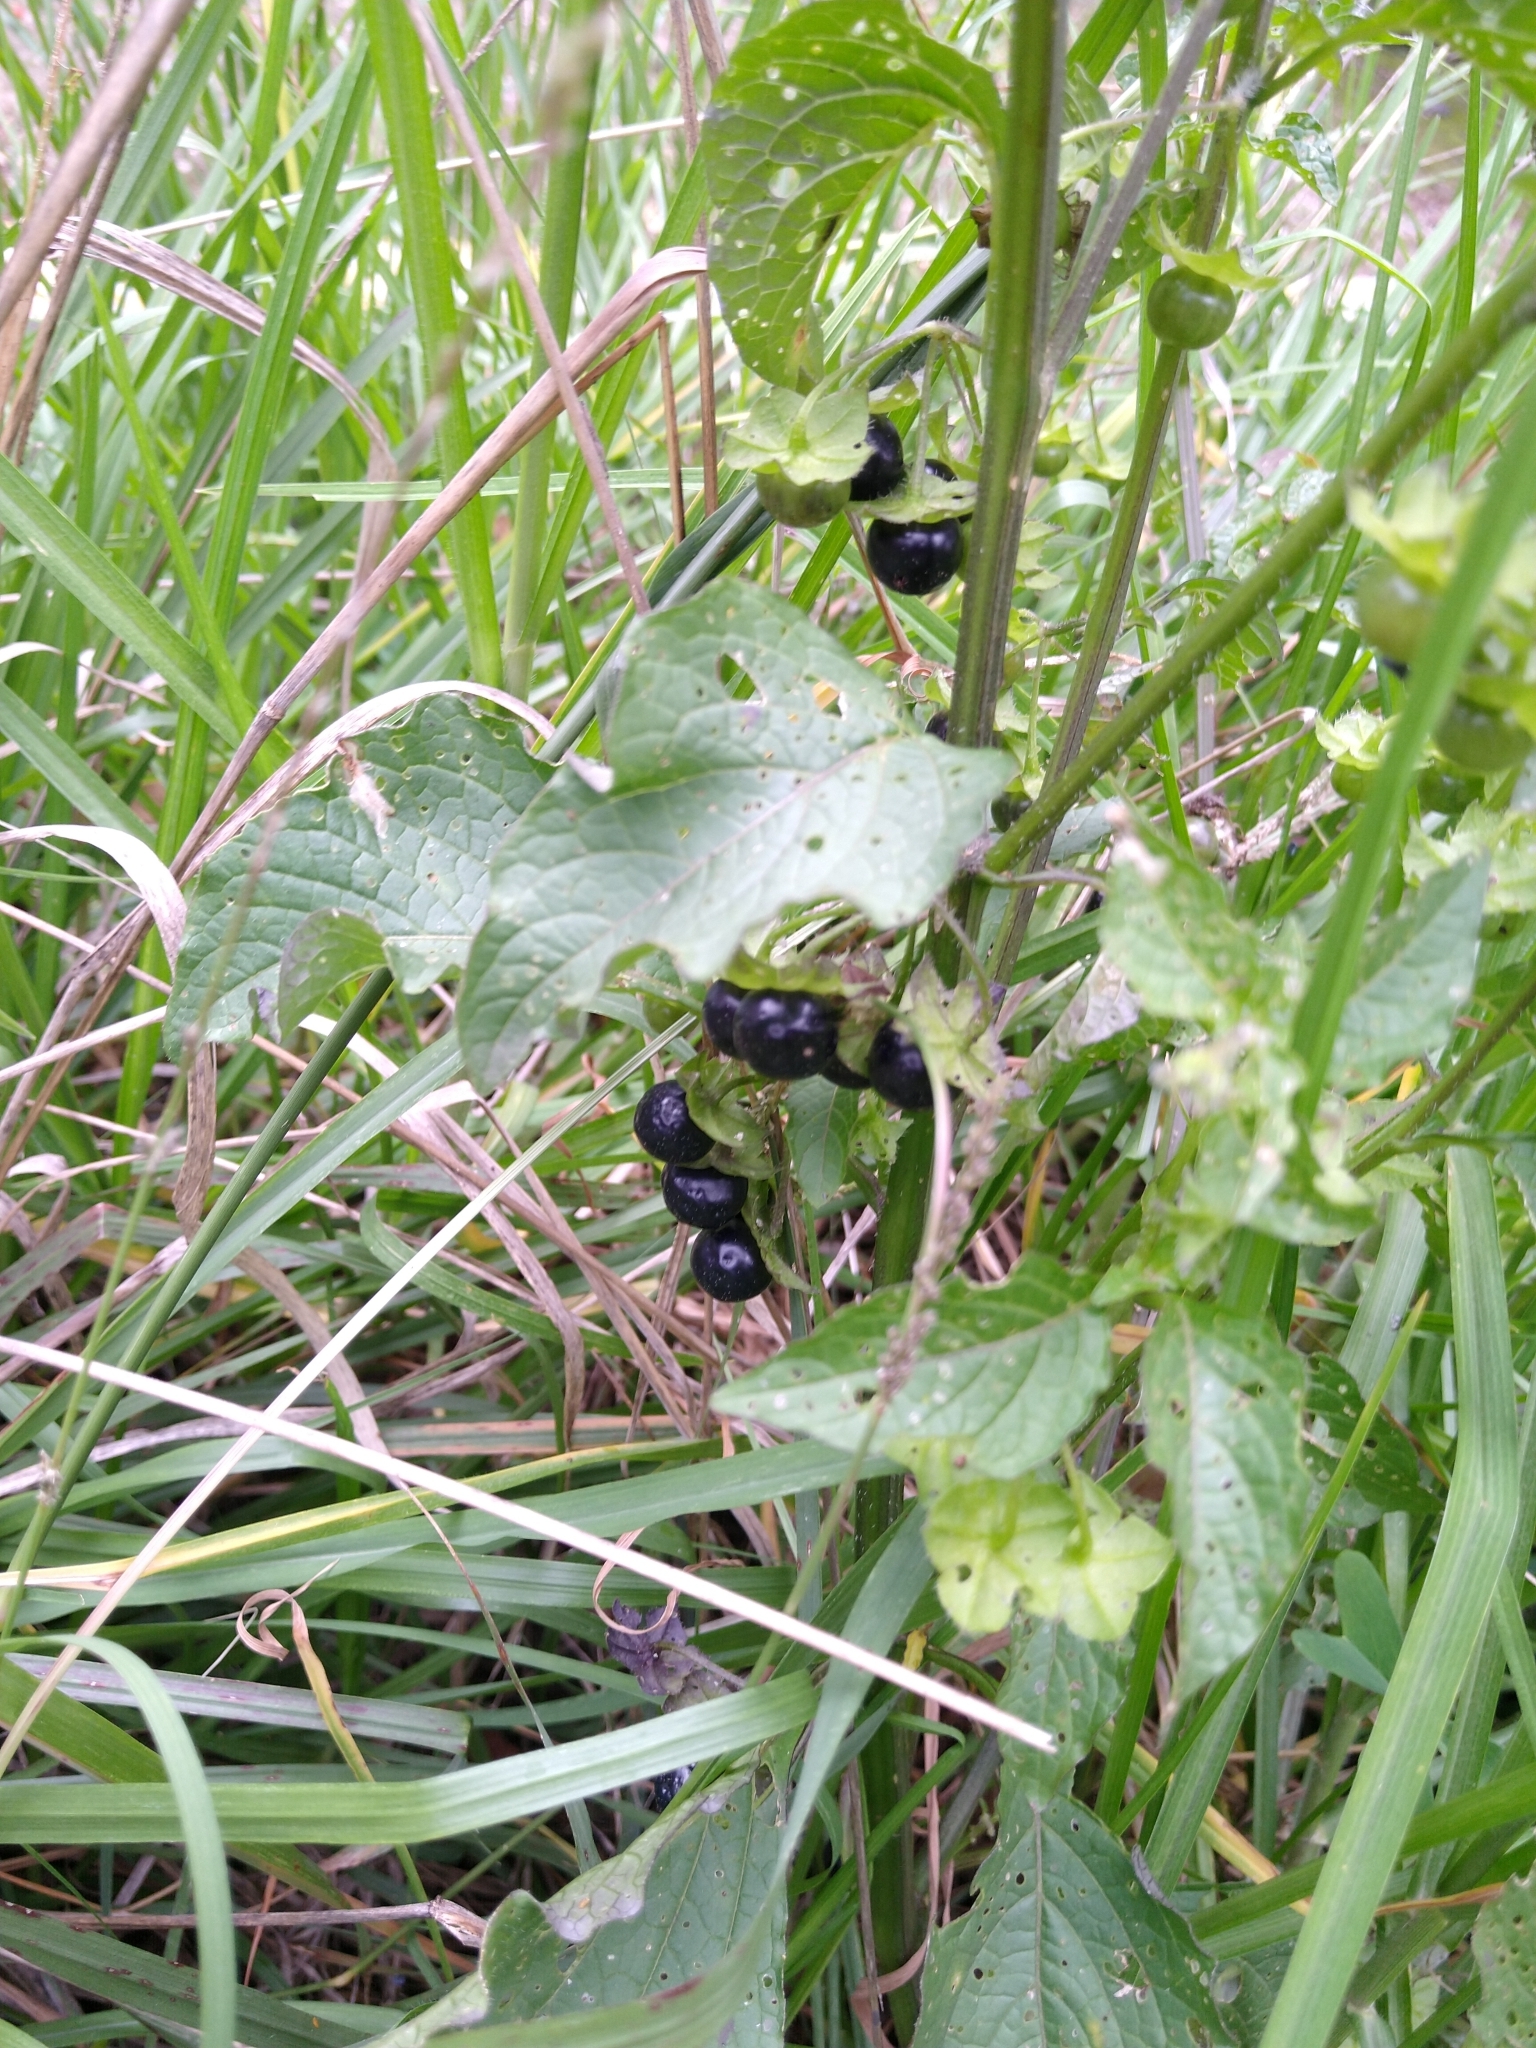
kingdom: Plantae
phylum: Tracheophyta
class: Magnoliopsida
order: Solanales
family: Solanaceae
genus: Jaltomata
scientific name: Jaltomata procumbens
